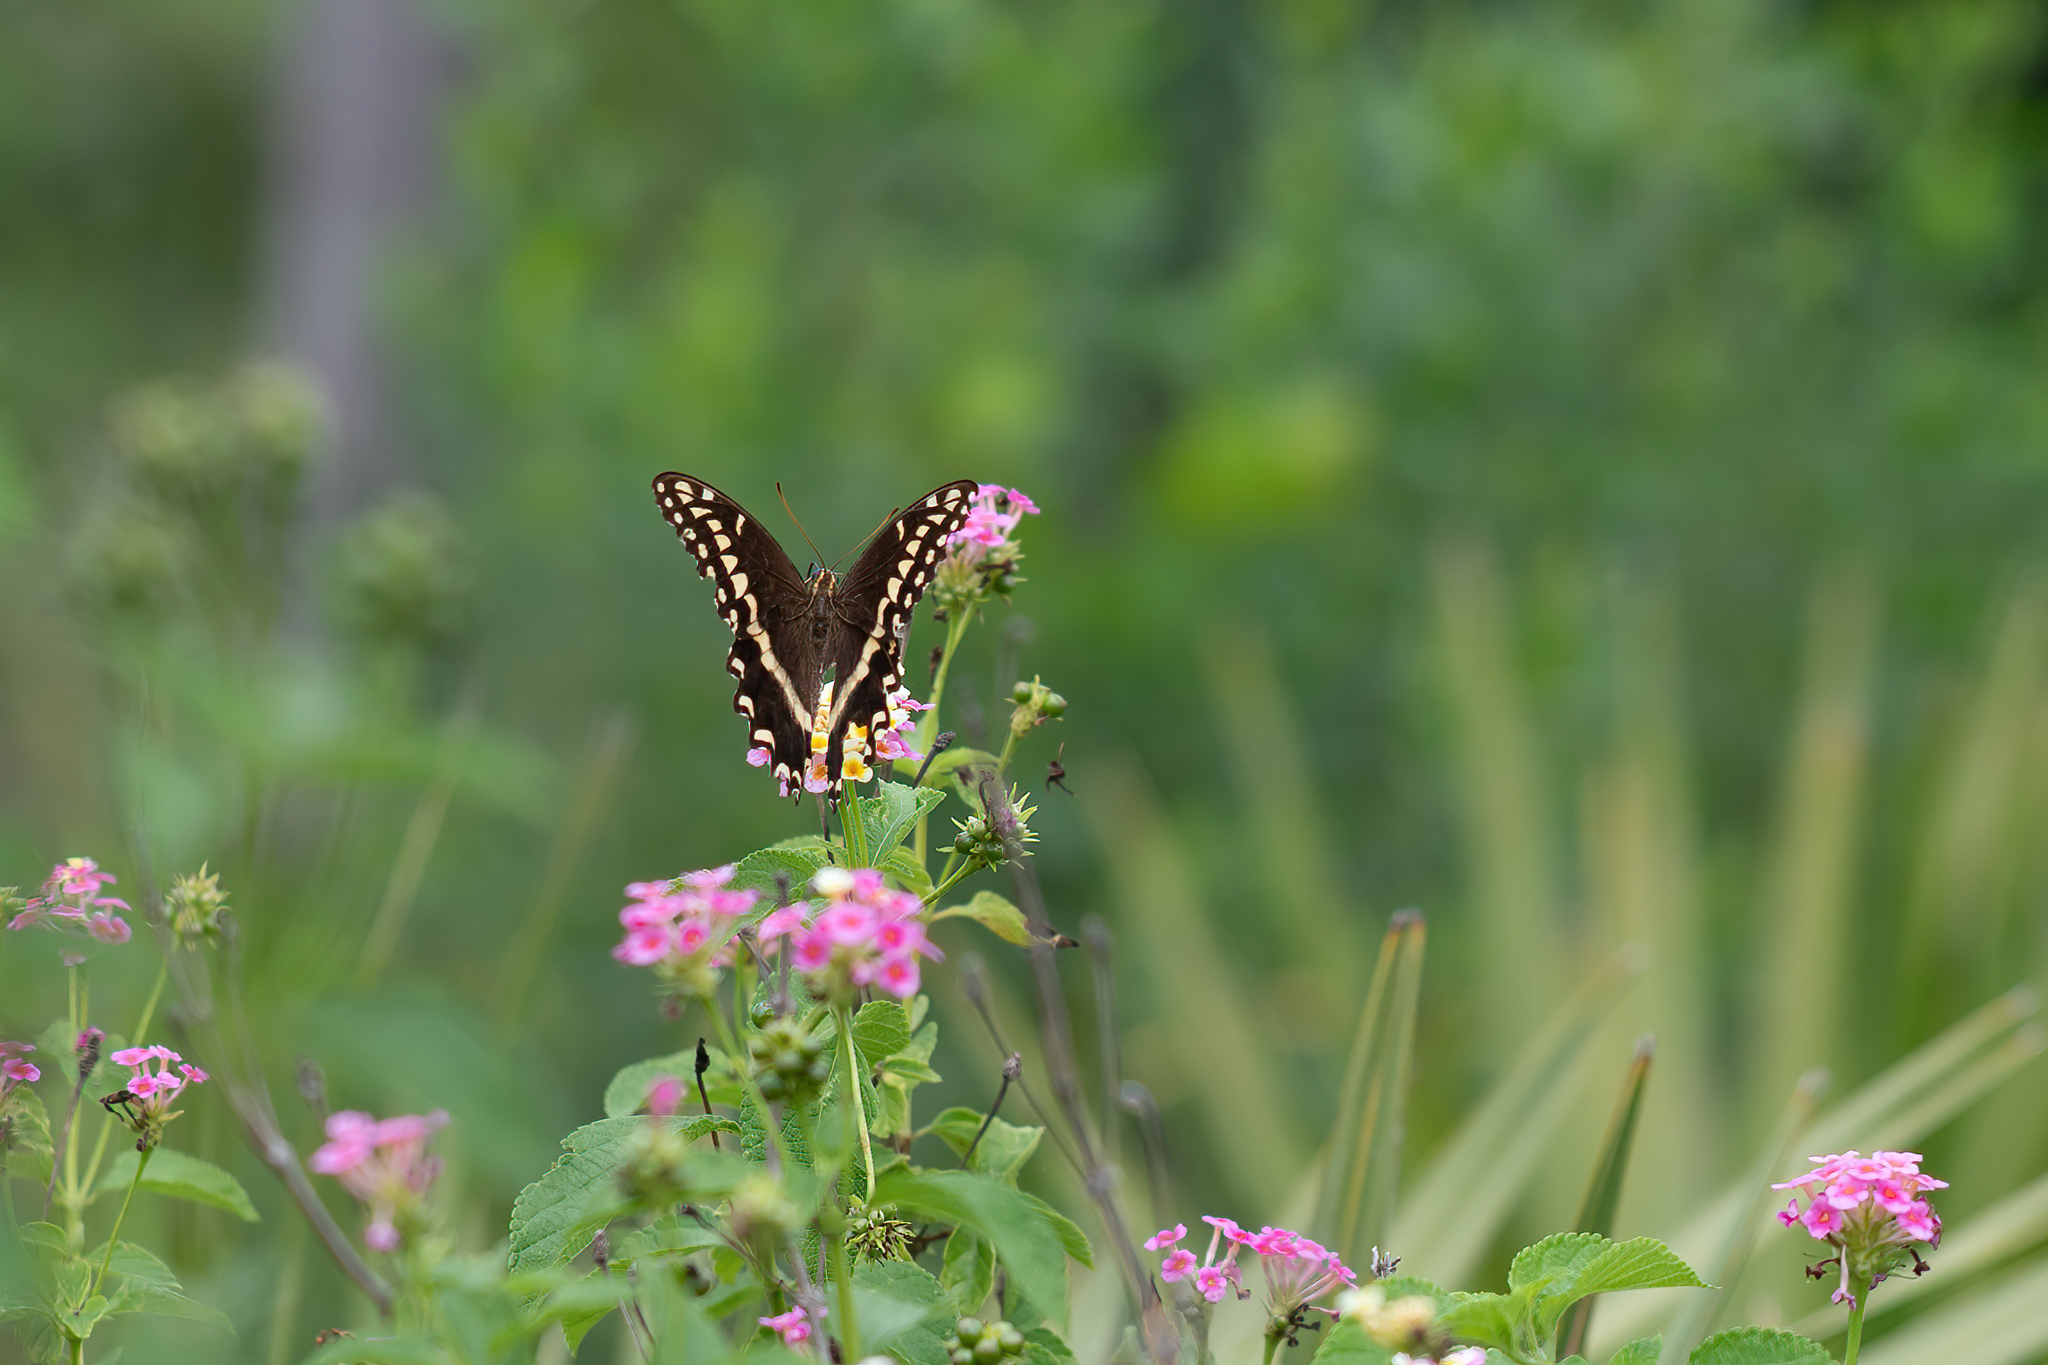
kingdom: Animalia
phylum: Arthropoda
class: Insecta
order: Lepidoptera
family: Papilionidae
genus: Papilio
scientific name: Papilio palamedes
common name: Palamedes swallowtail
